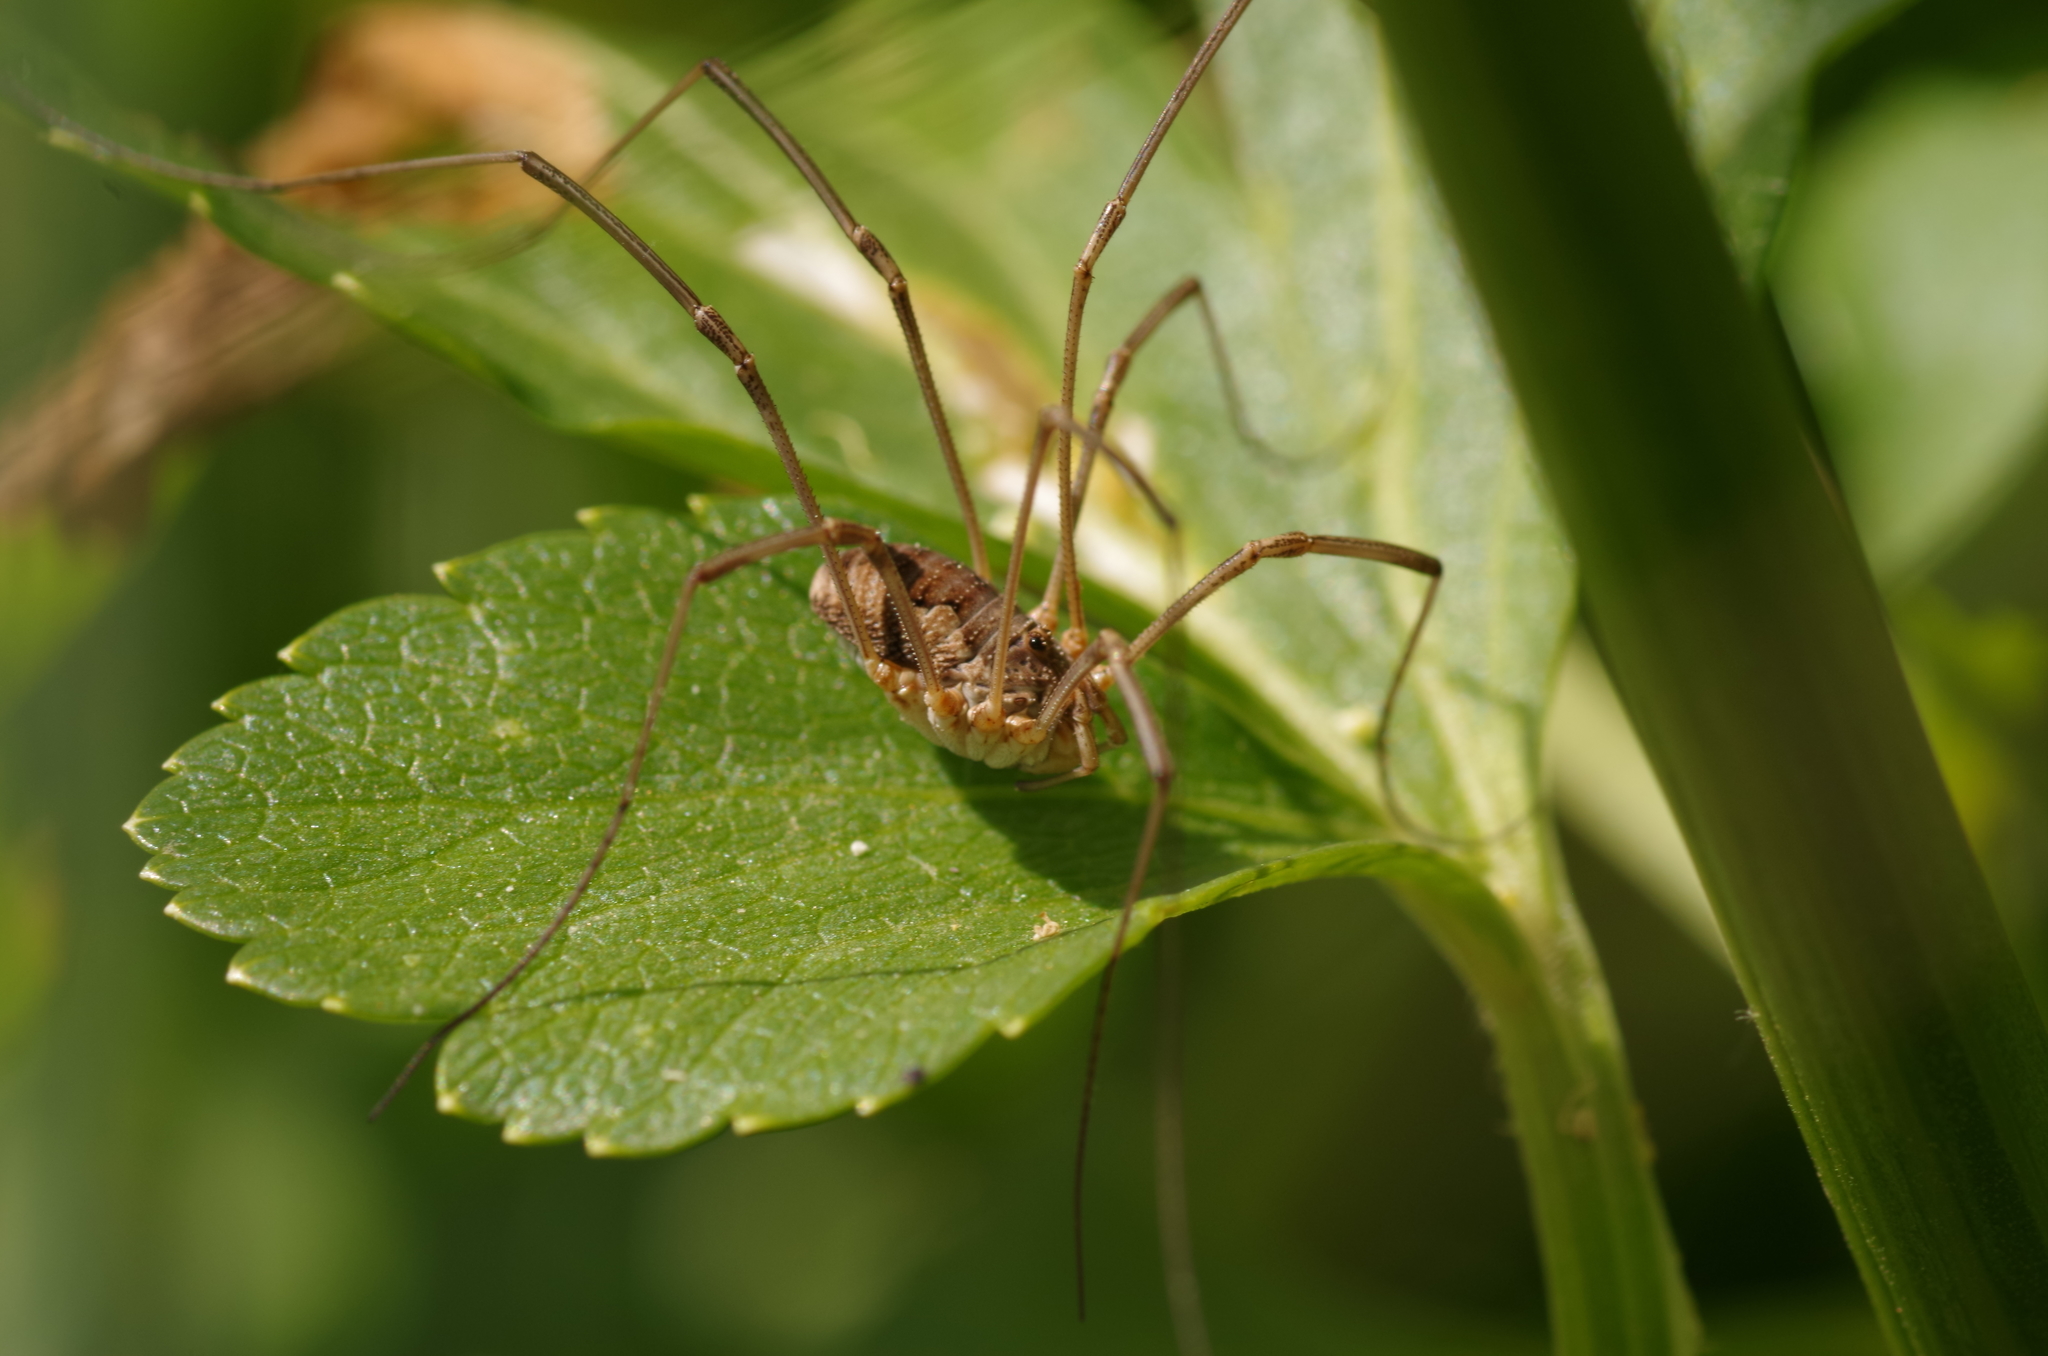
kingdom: Animalia
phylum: Arthropoda
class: Arachnida
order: Opiliones
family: Phalangiidae
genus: Phalangium
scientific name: Phalangium opilio
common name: Daddy longleg
